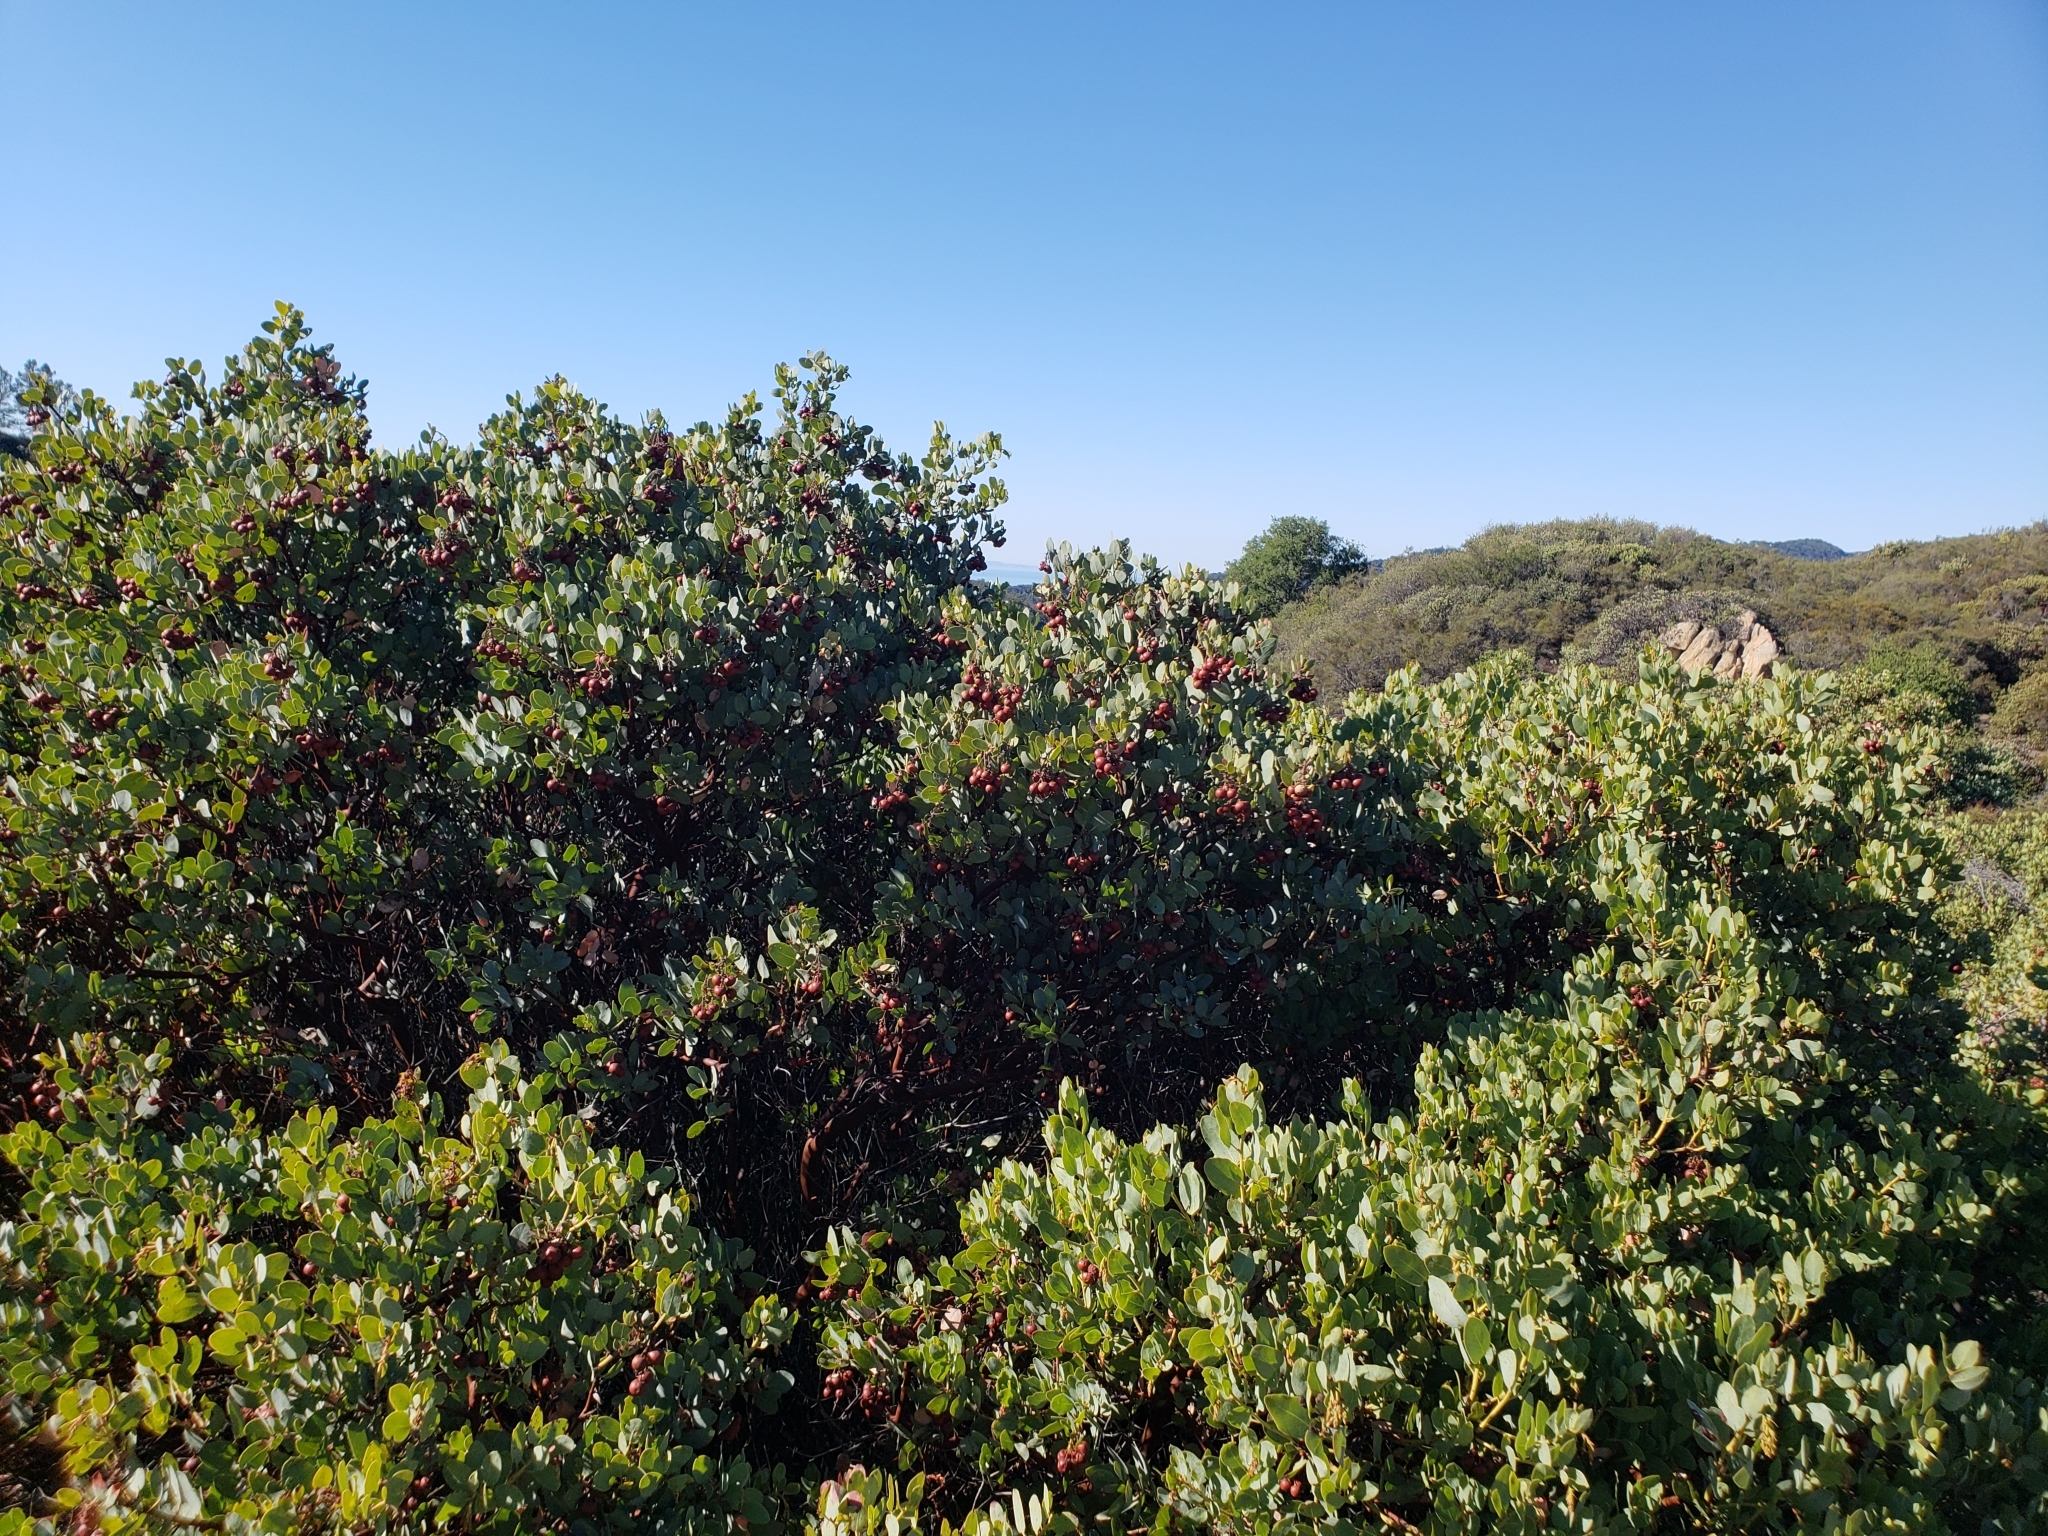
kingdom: Plantae
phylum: Tracheophyta
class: Magnoliopsida
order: Ericales
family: Ericaceae
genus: Arctostaphylos
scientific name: Arctostaphylos glauca
